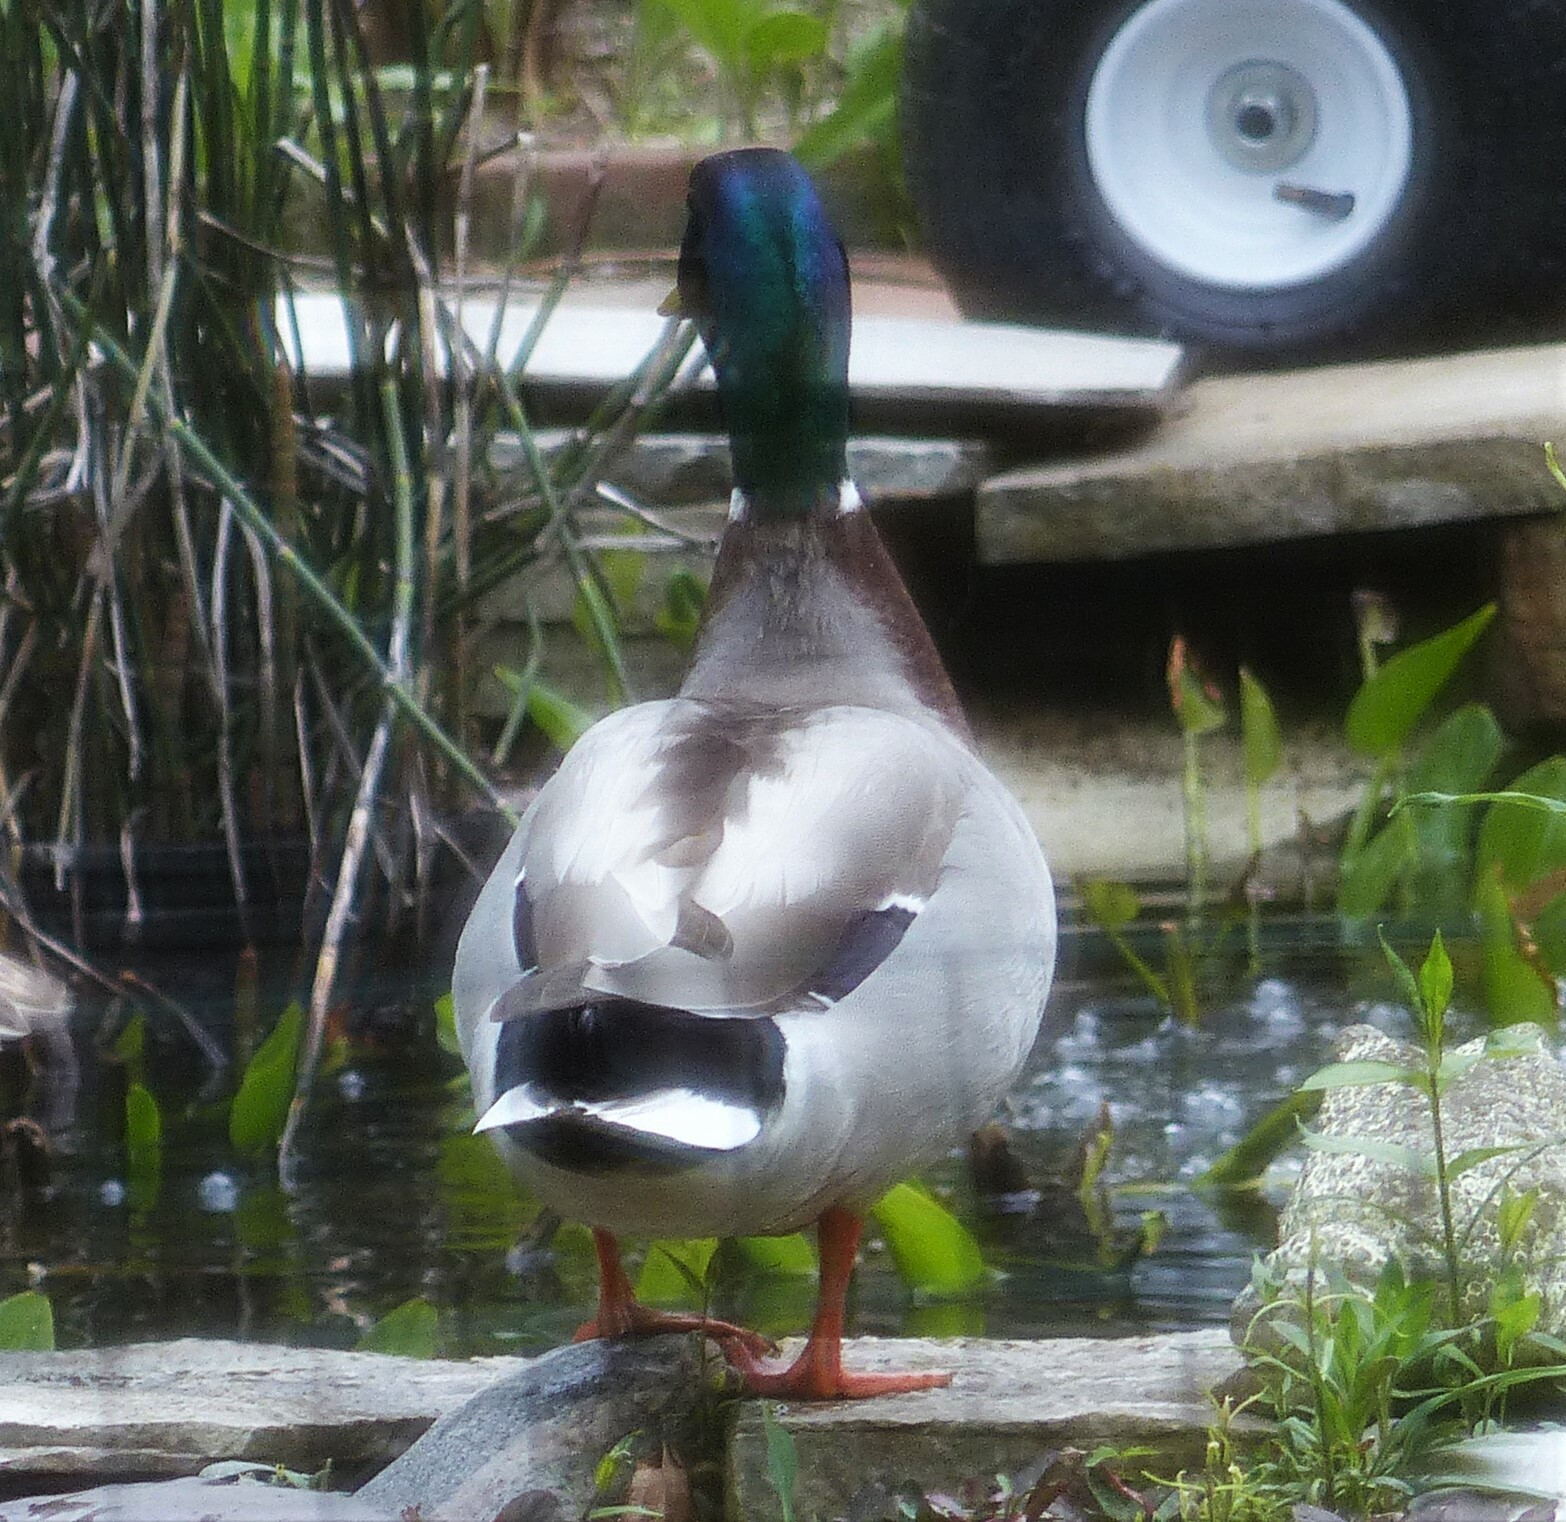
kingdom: Animalia
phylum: Chordata
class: Aves
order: Anseriformes
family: Anatidae
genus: Anas
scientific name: Anas platyrhynchos
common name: Mallard
